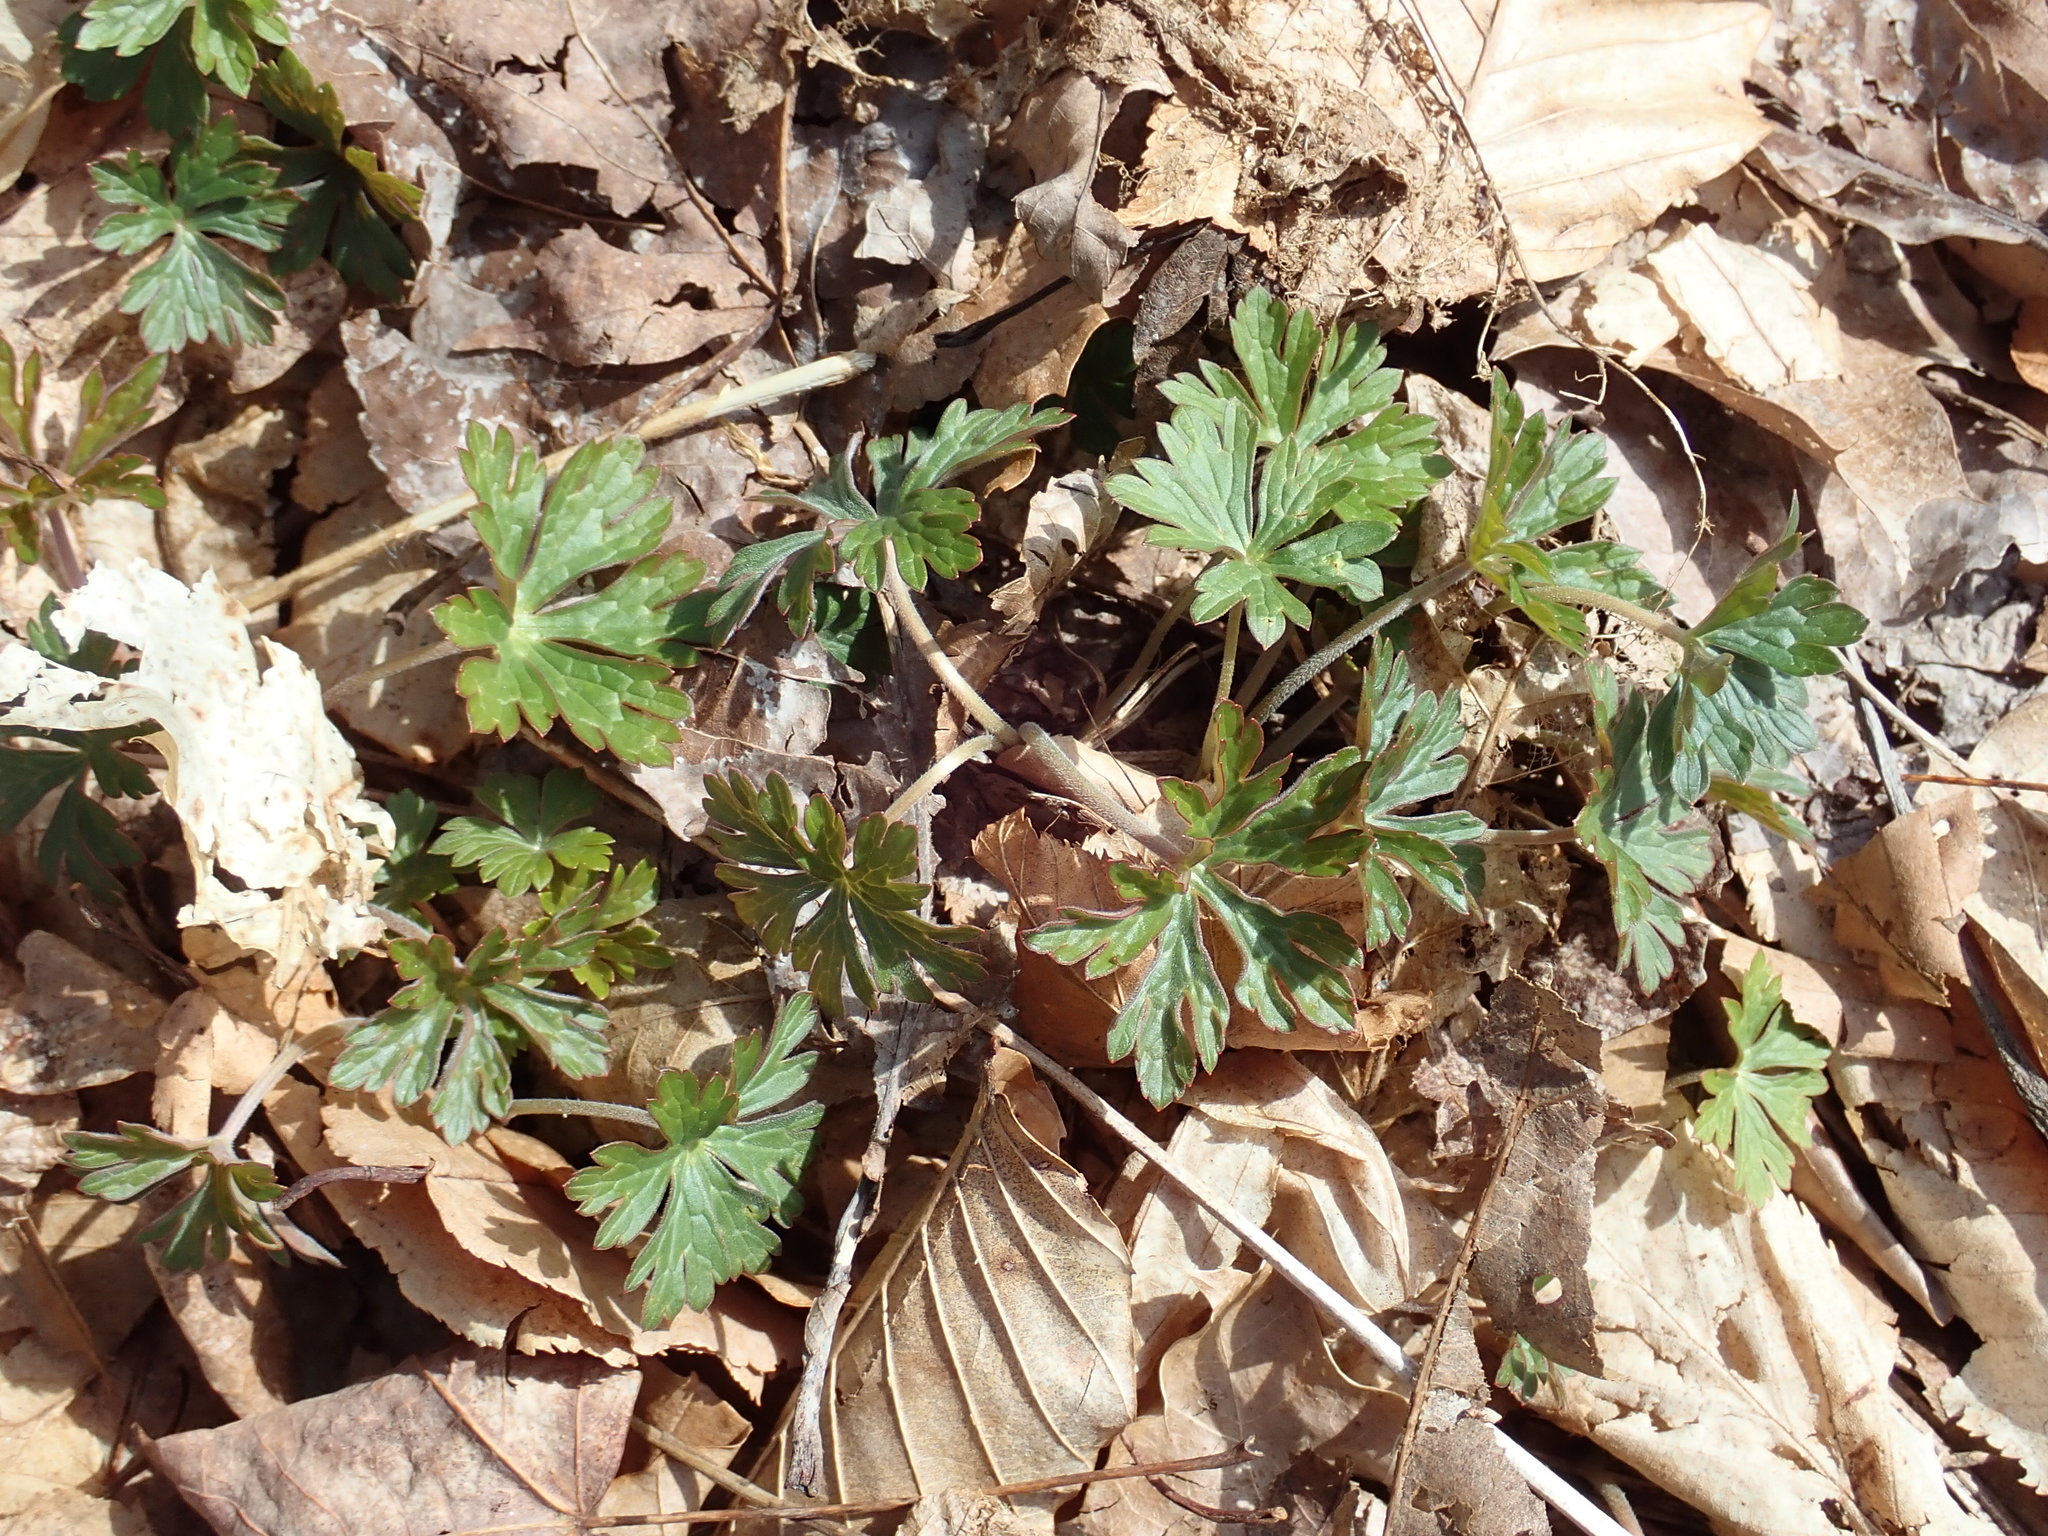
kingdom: Plantae
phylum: Tracheophyta
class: Magnoliopsida
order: Geraniales
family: Geraniaceae
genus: Geranium
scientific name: Geranium maculatum
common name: Spotted geranium
